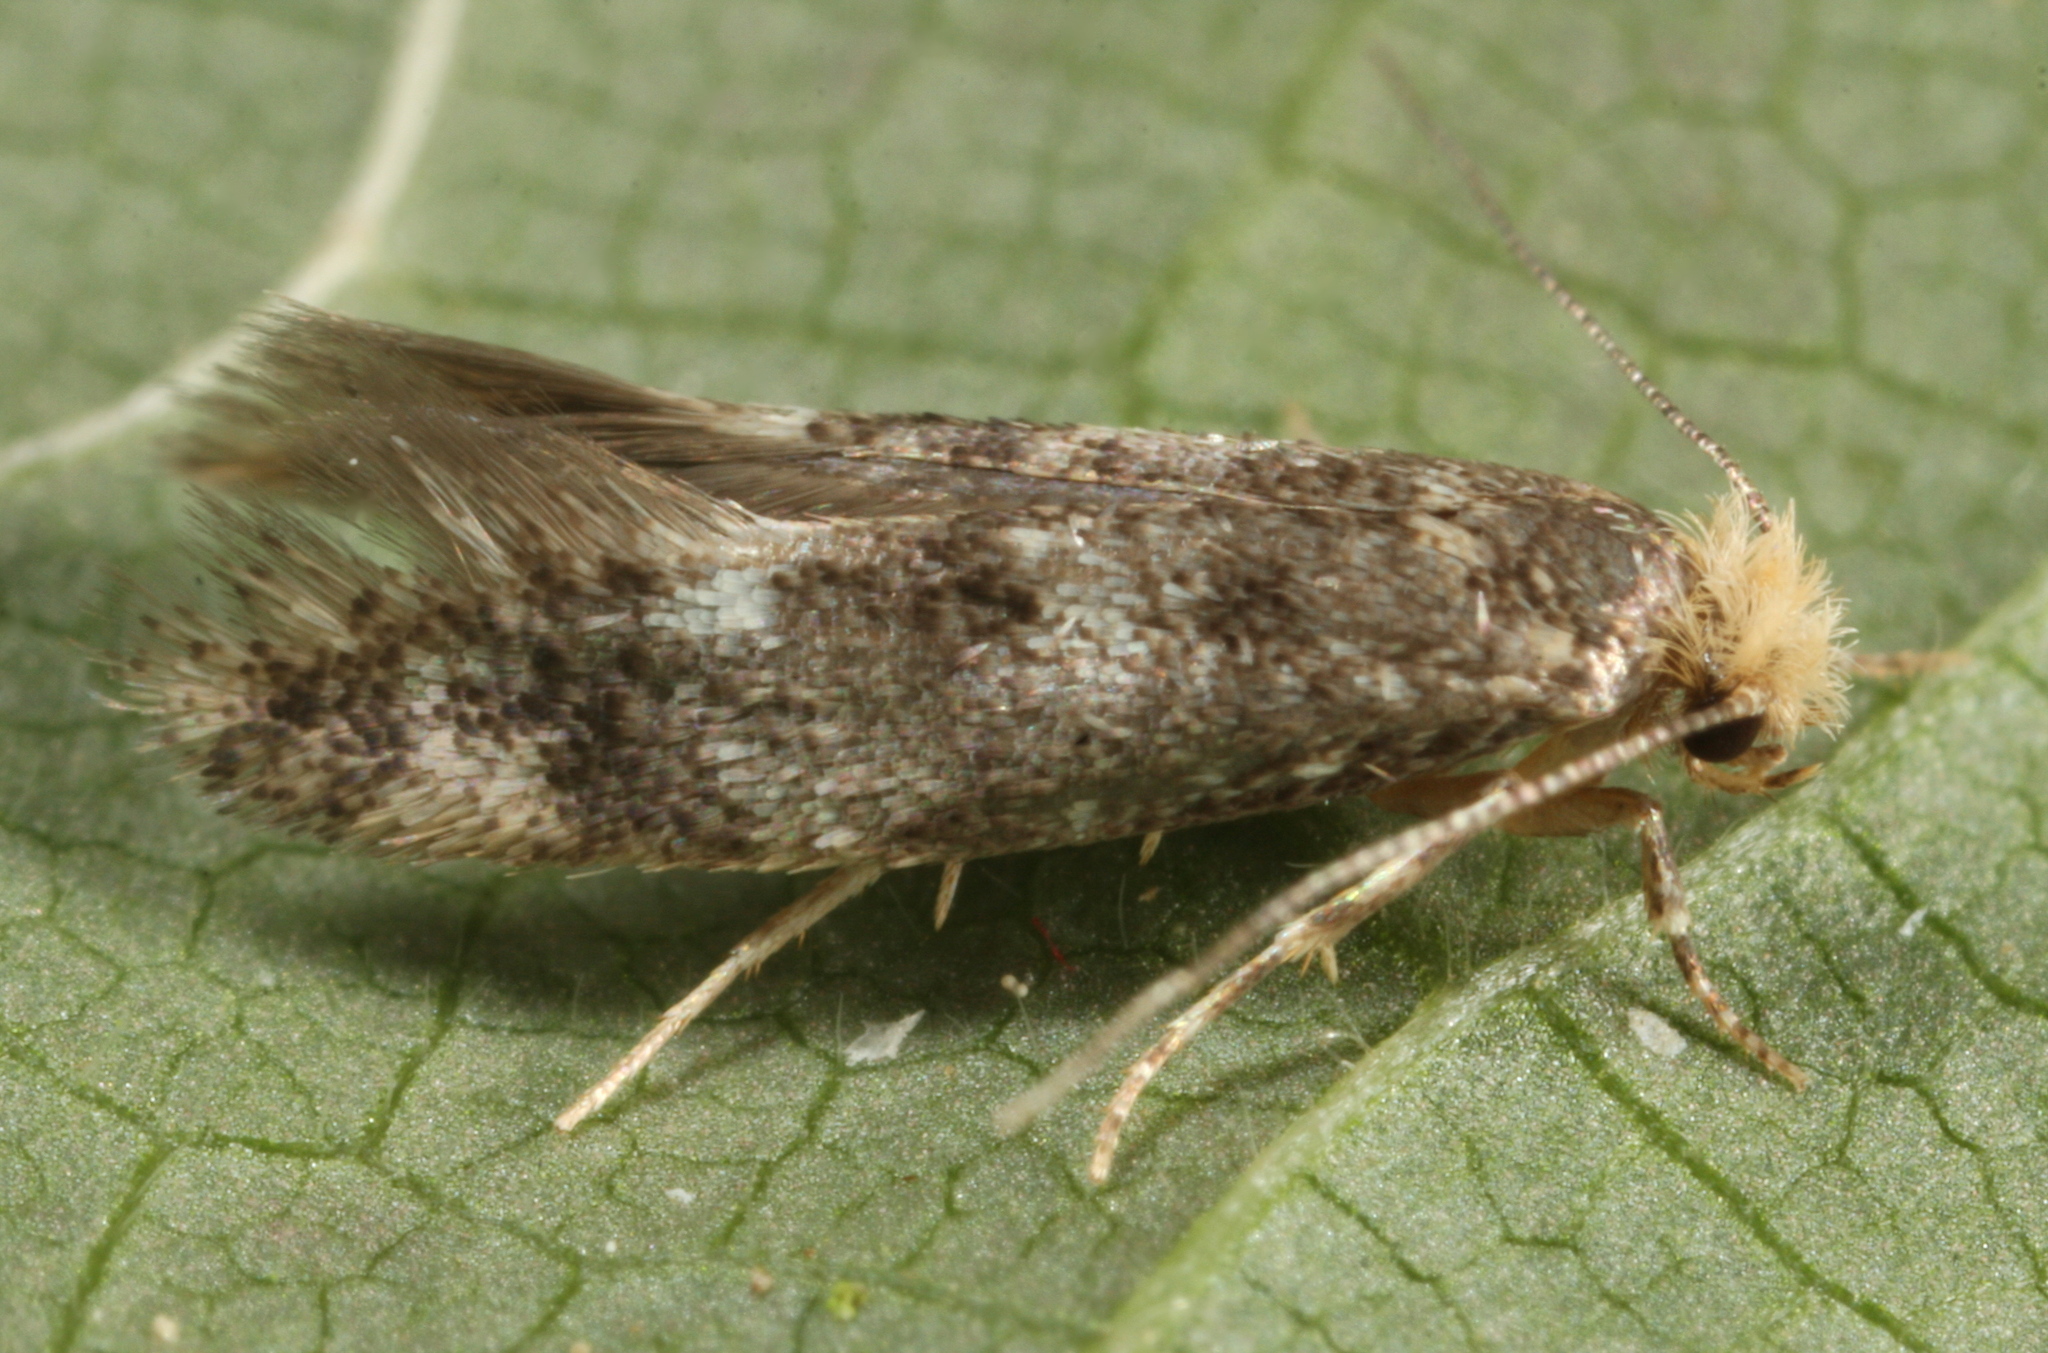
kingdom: Animalia
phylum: Arthropoda
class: Insecta
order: Lepidoptera
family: Meessiidae
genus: Infurcitinea
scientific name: Infurcitinea ignicomella
